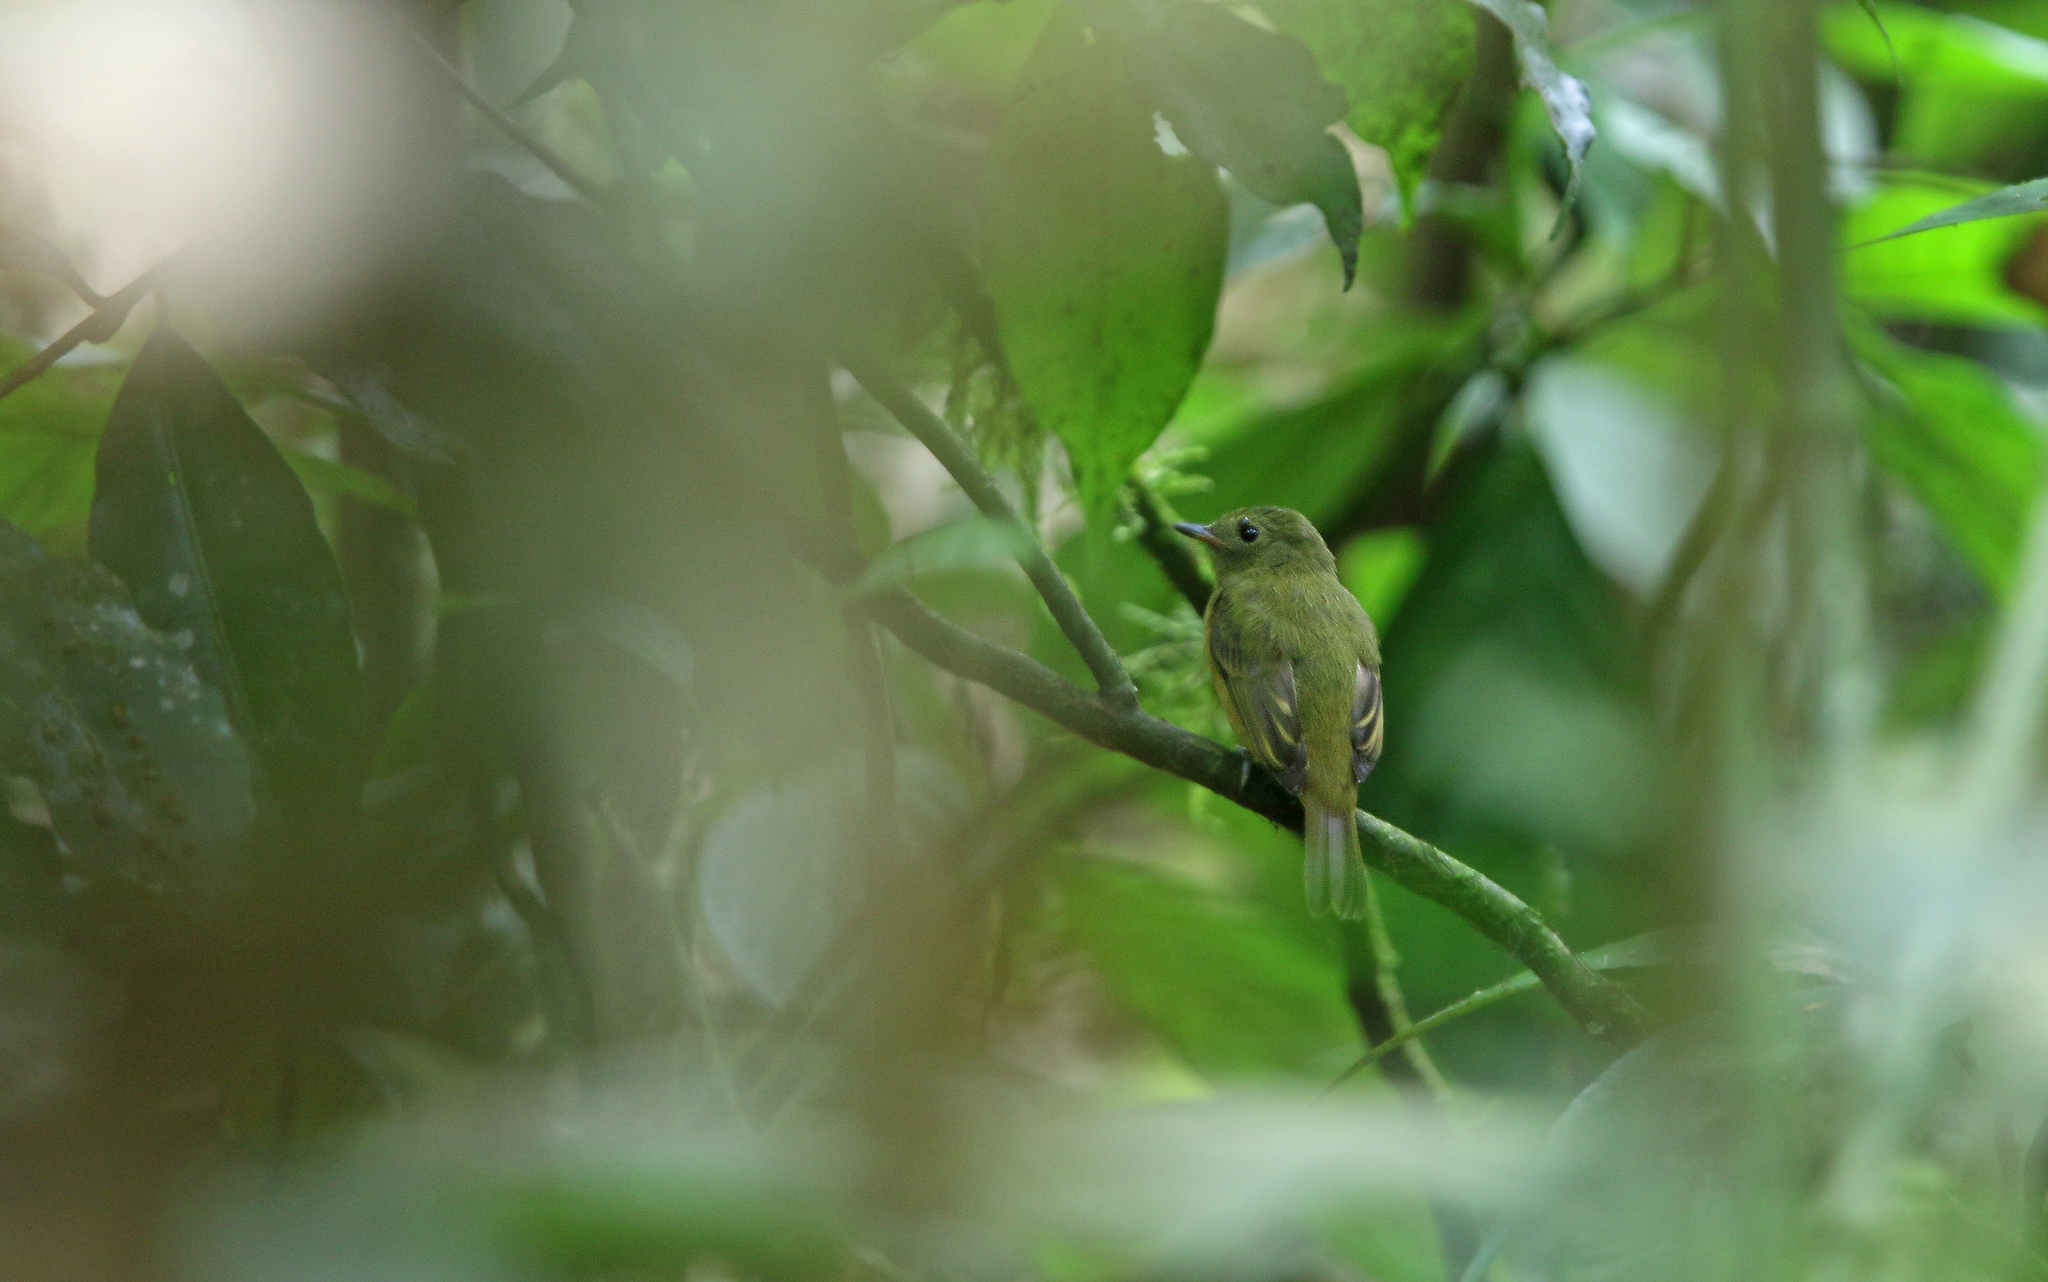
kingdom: Animalia
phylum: Chordata
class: Aves
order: Passeriformes
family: Tyrannidae
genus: Mionectes
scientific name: Mionectes oleagineus
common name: Ochre-bellied flycatcher
